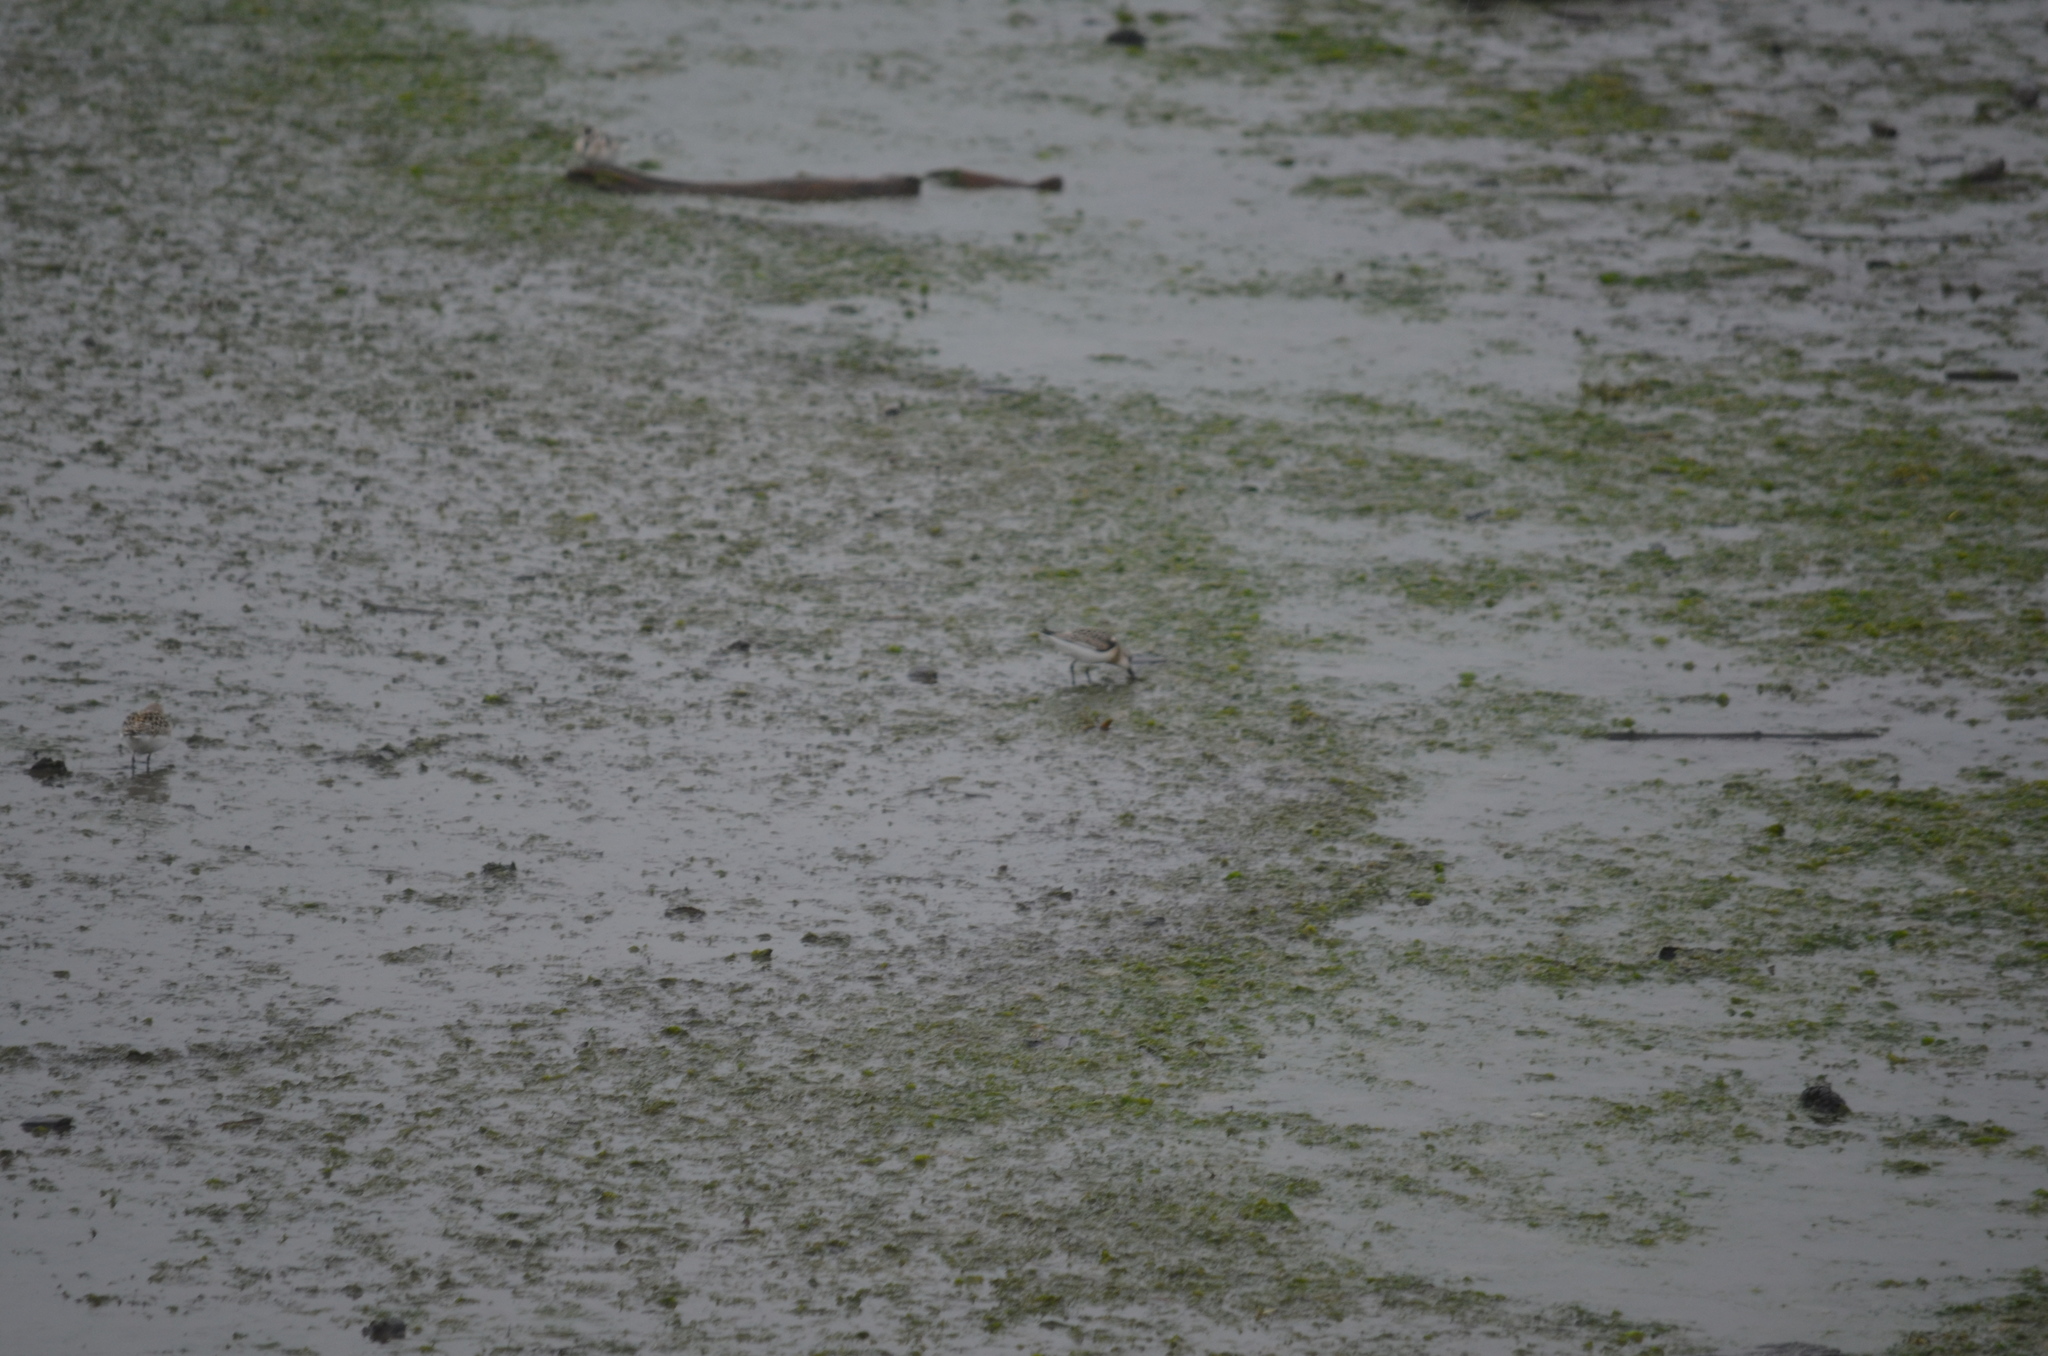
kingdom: Animalia
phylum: Chordata
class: Aves
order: Charadriiformes
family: Scolopacidae
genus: Calidris
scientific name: Calidris alba
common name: Sanderling
